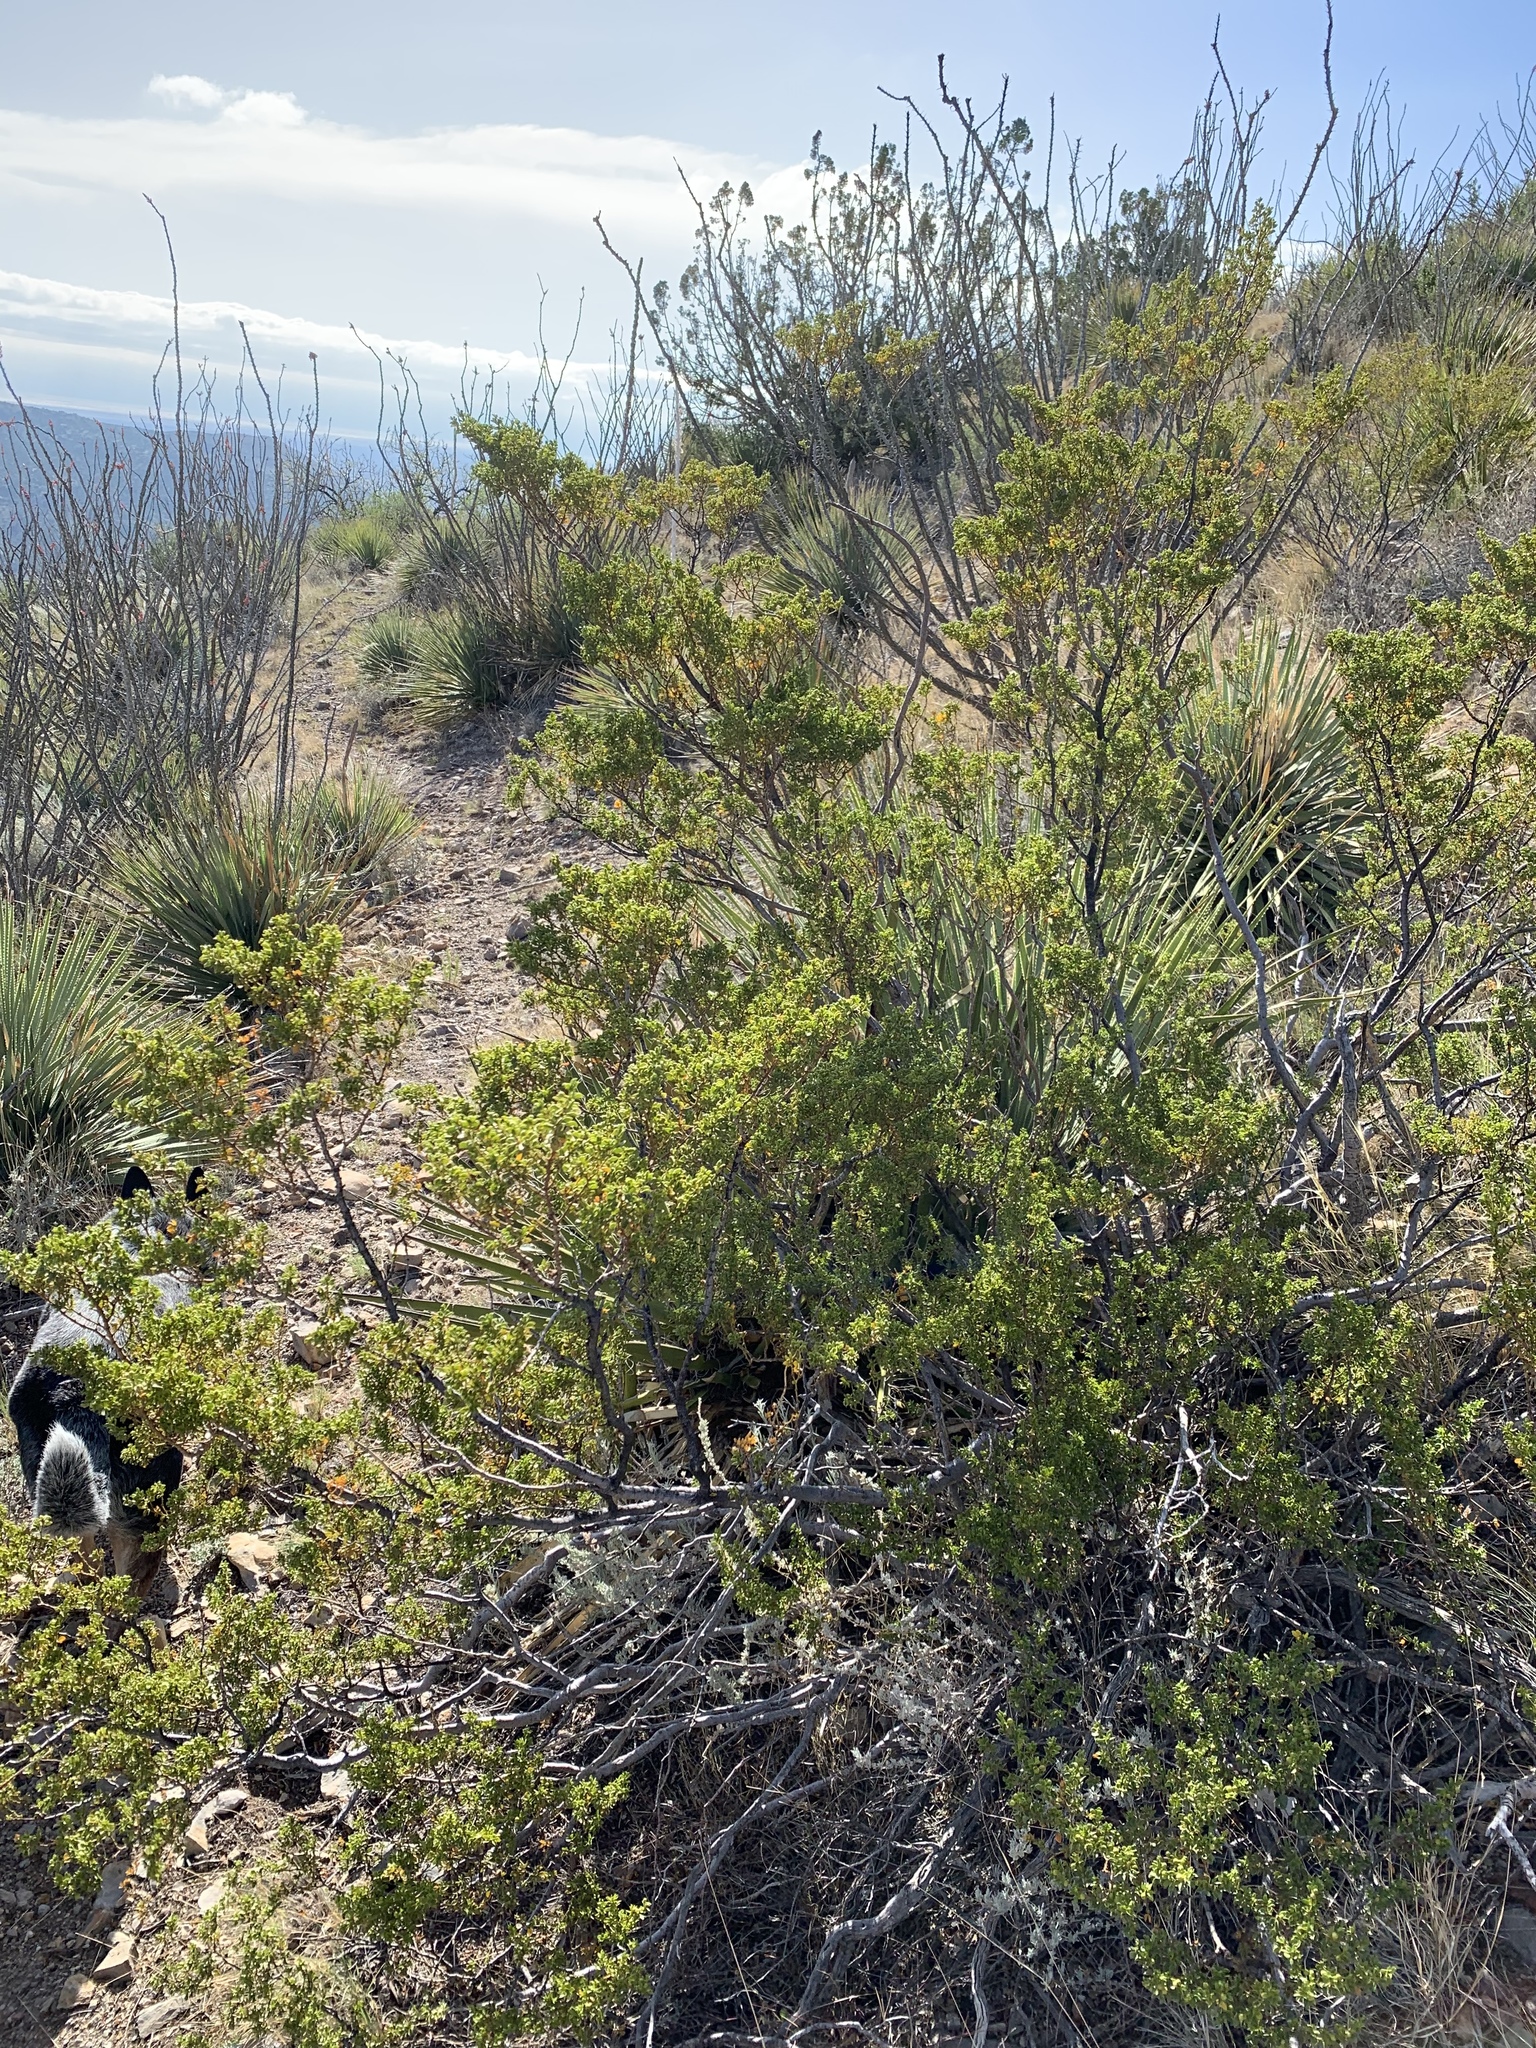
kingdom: Plantae
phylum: Tracheophyta
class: Magnoliopsida
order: Zygophyllales
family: Zygophyllaceae
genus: Larrea
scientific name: Larrea tridentata
